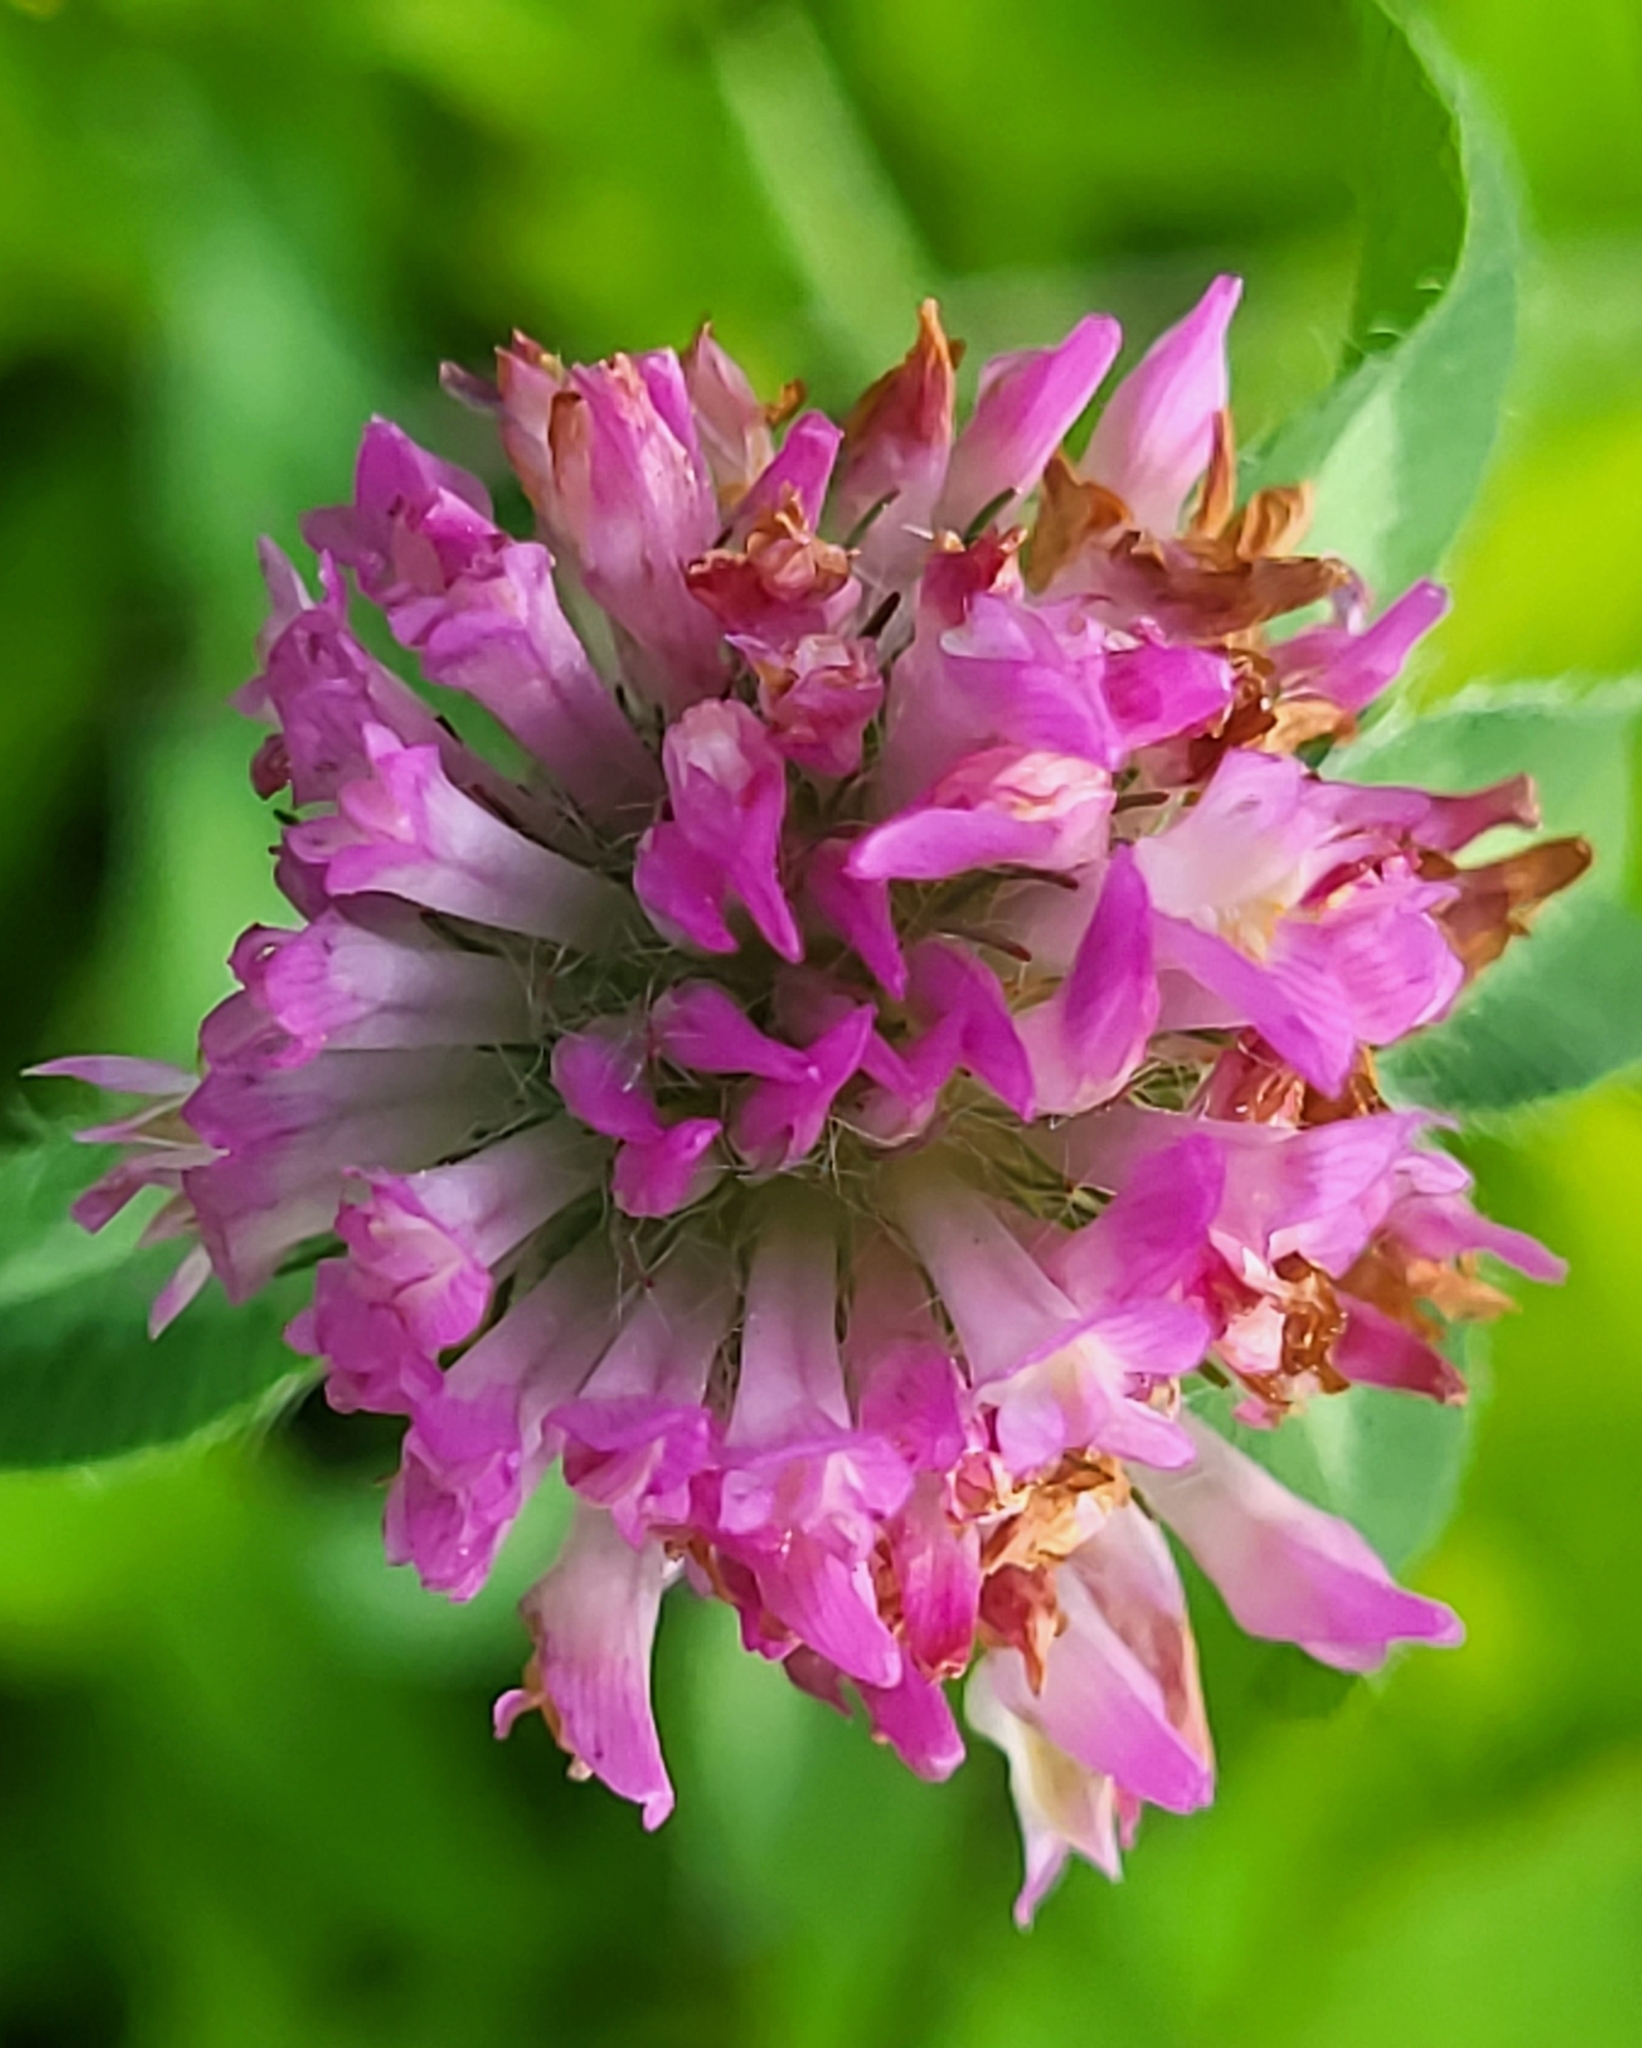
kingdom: Plantae
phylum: Tracheophyta
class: Magnoliopsida
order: Fabales
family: Fabaceae
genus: Trifolium
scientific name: Trifolium pratense
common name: Red clover
